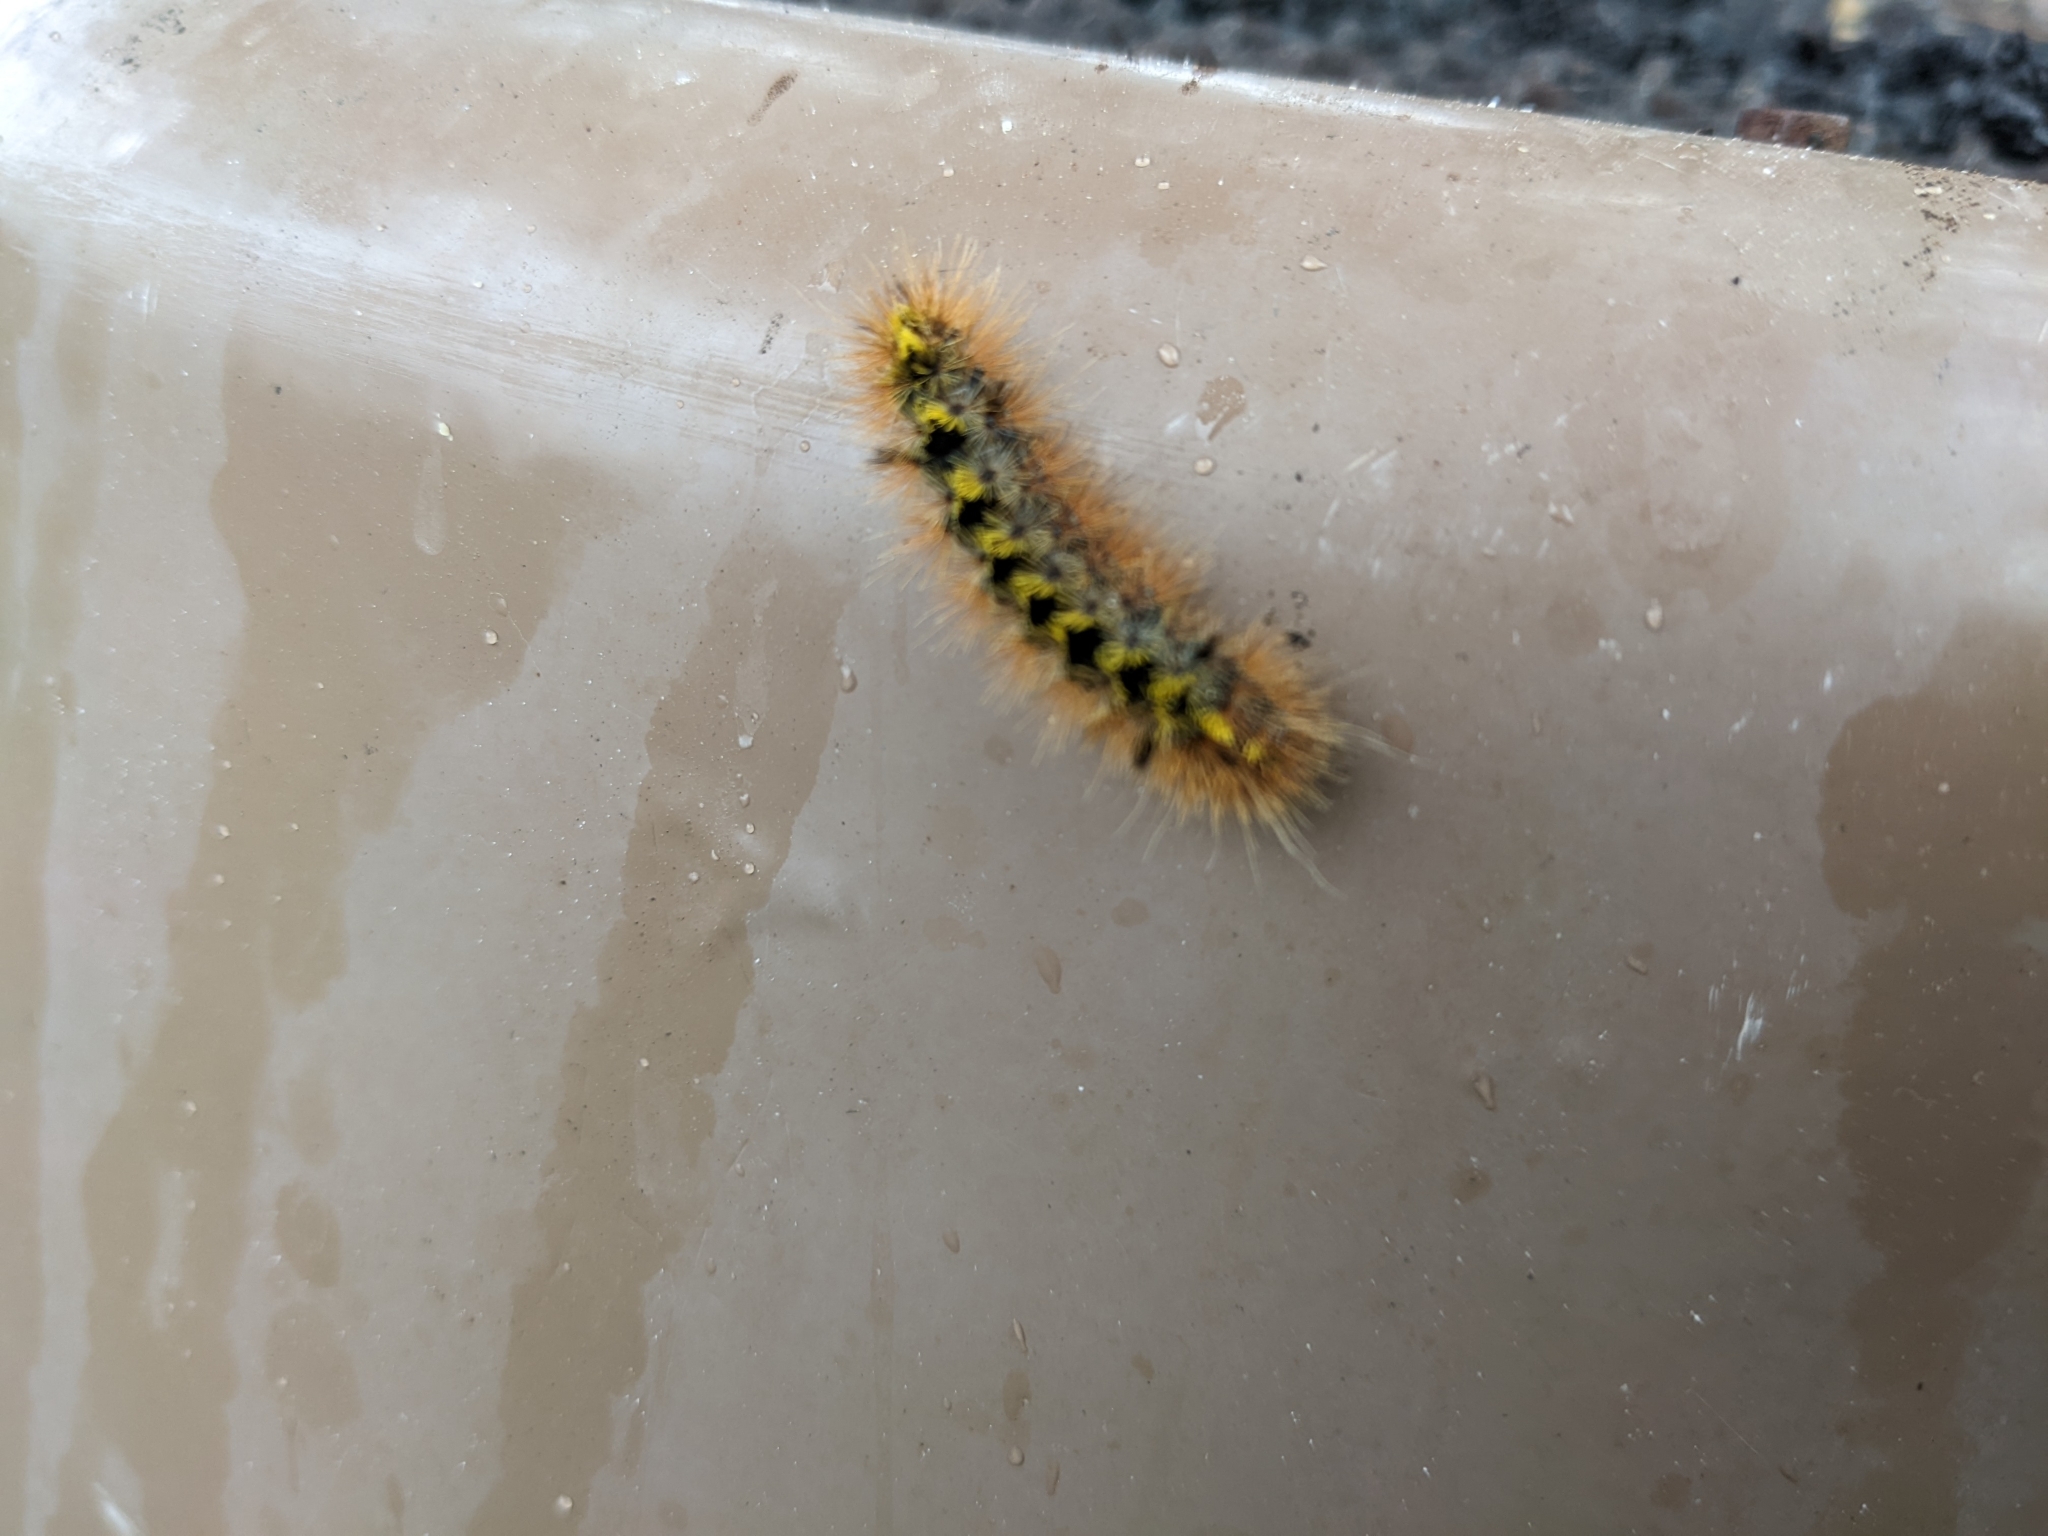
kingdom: Animalia
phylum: Arthropoda
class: Insecta
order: Lepidoptera
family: Erebidae
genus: Lophocampa
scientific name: Lophocampa argentata
